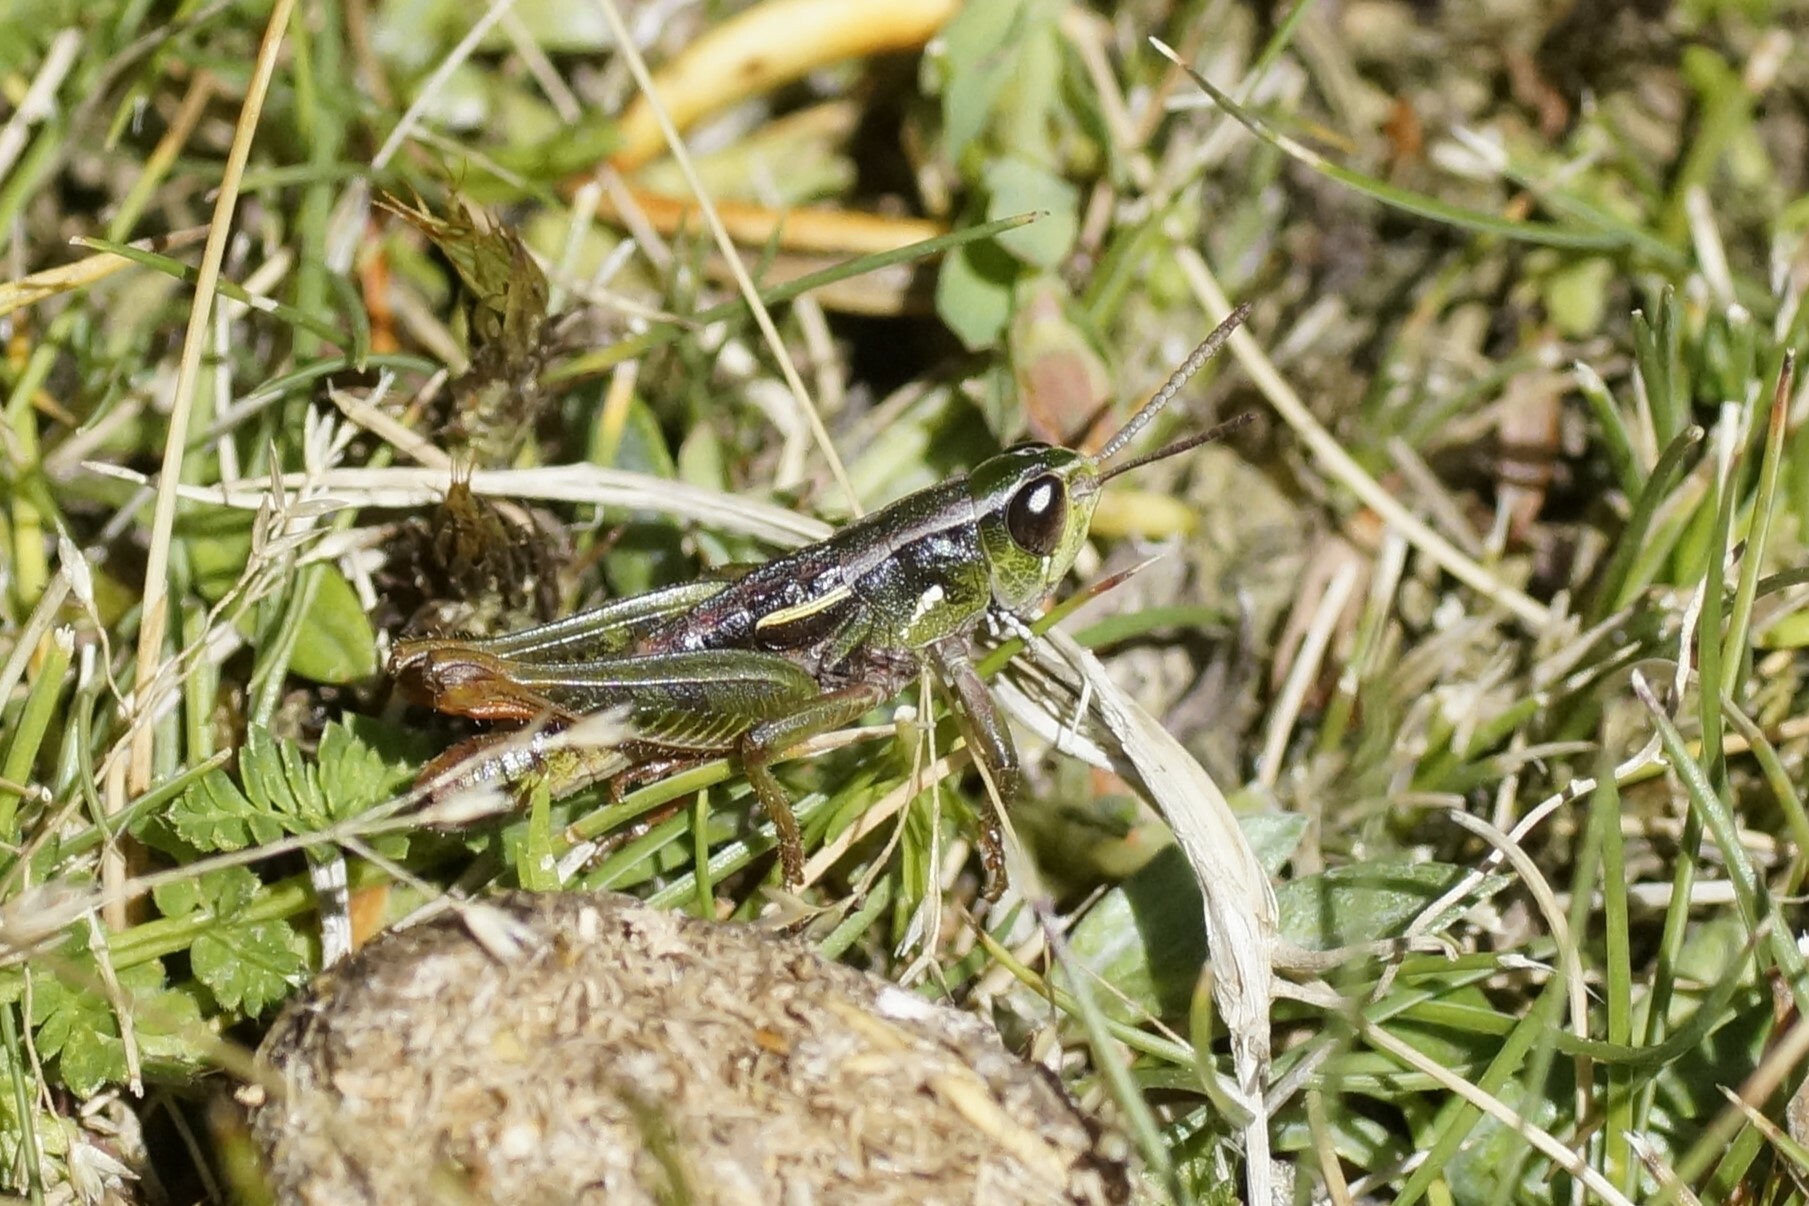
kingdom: Animalia
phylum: Arthropoda
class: Insecta
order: Orthoptera
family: Acrididae
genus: Russalpia
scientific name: Russalpia albertisi
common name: Tassie hopper
